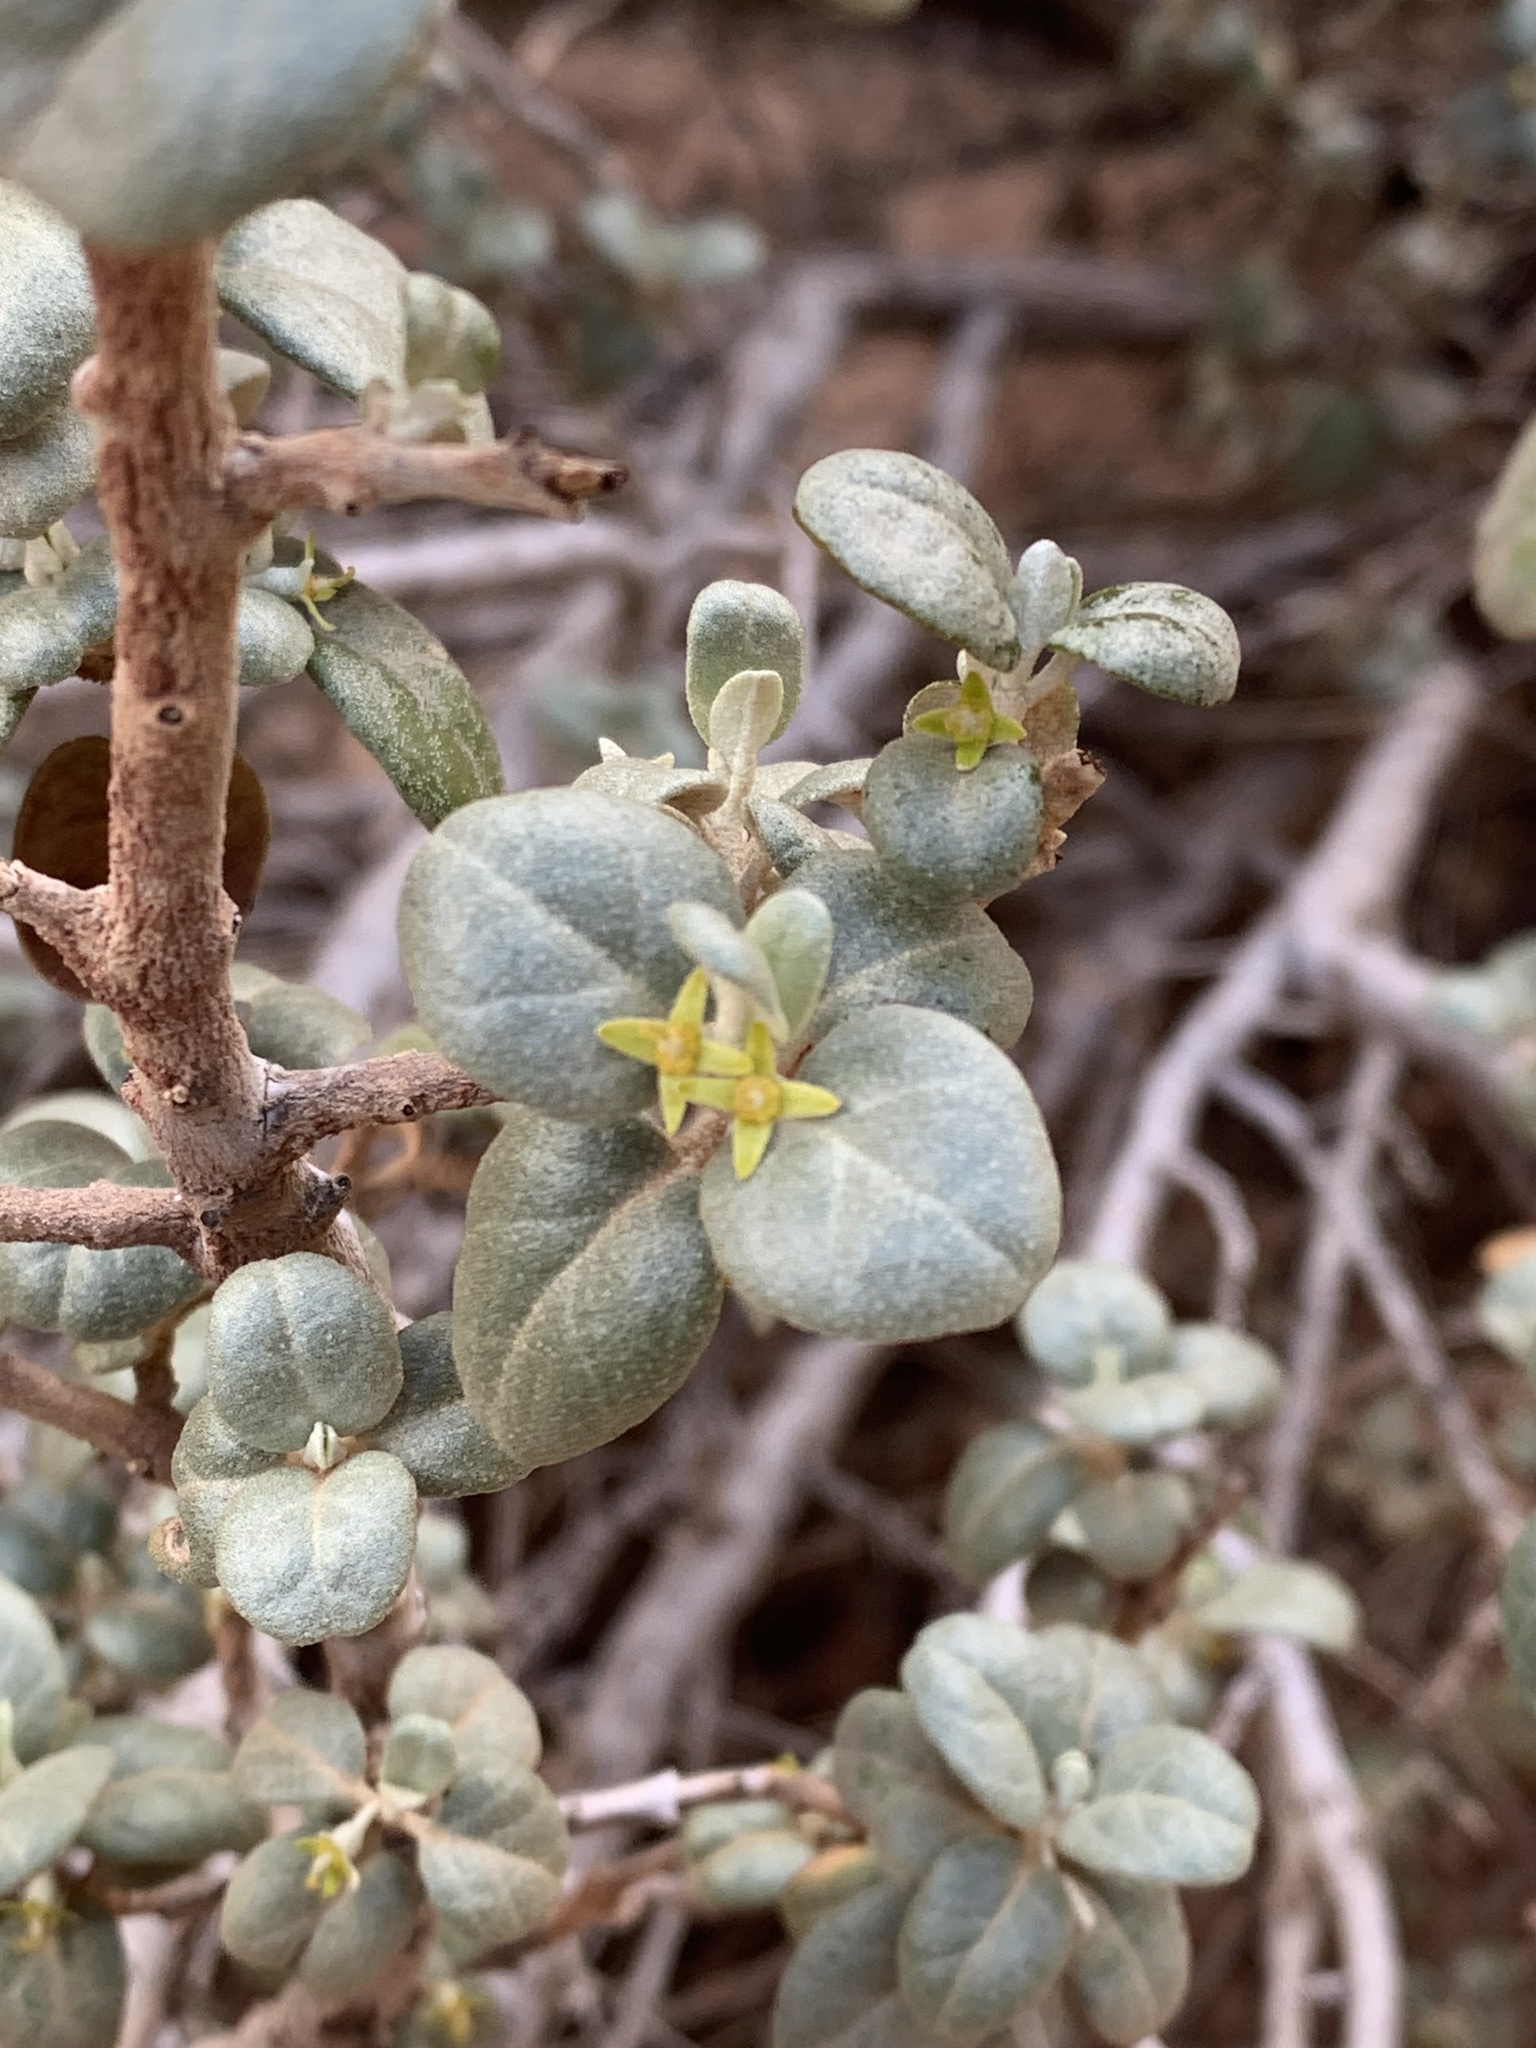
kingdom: Plantae
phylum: Tracheophyta
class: Magnoliopsida
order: Rosales
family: Elaeagnaceae
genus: Shepherdia
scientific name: Shepherdia rotundifolia
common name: Silverscale
